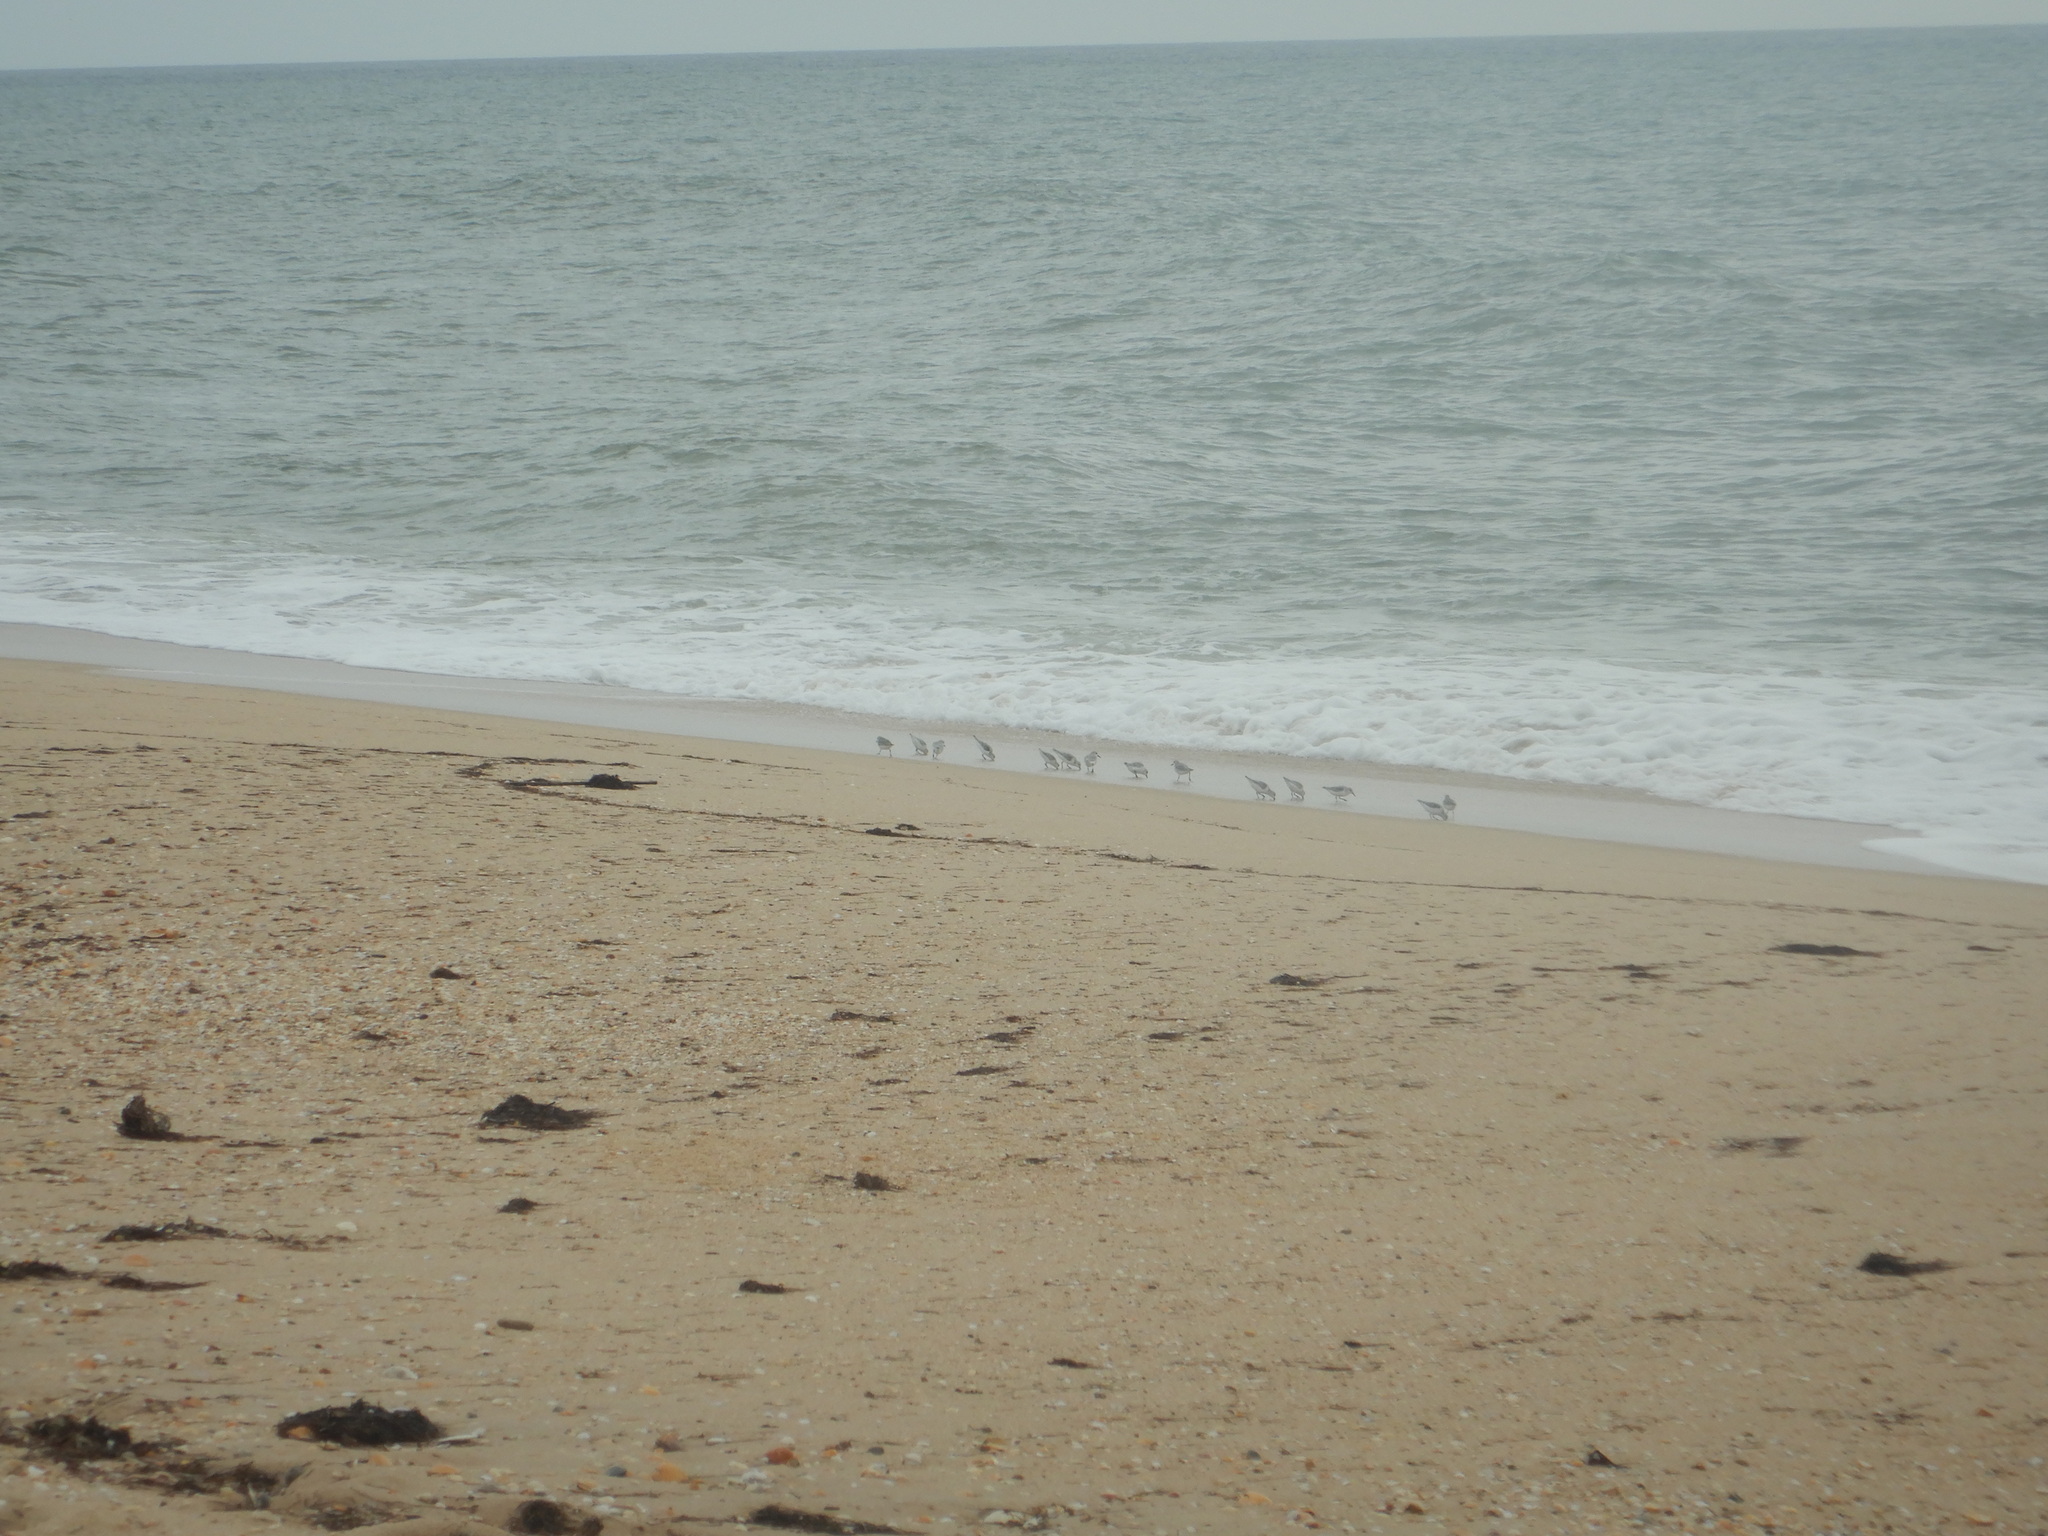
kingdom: Animalia
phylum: Chordata
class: Aves
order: Charadriiformes
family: Scolopacidae
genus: Calidris
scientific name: Calidris alba
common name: Sanderling
